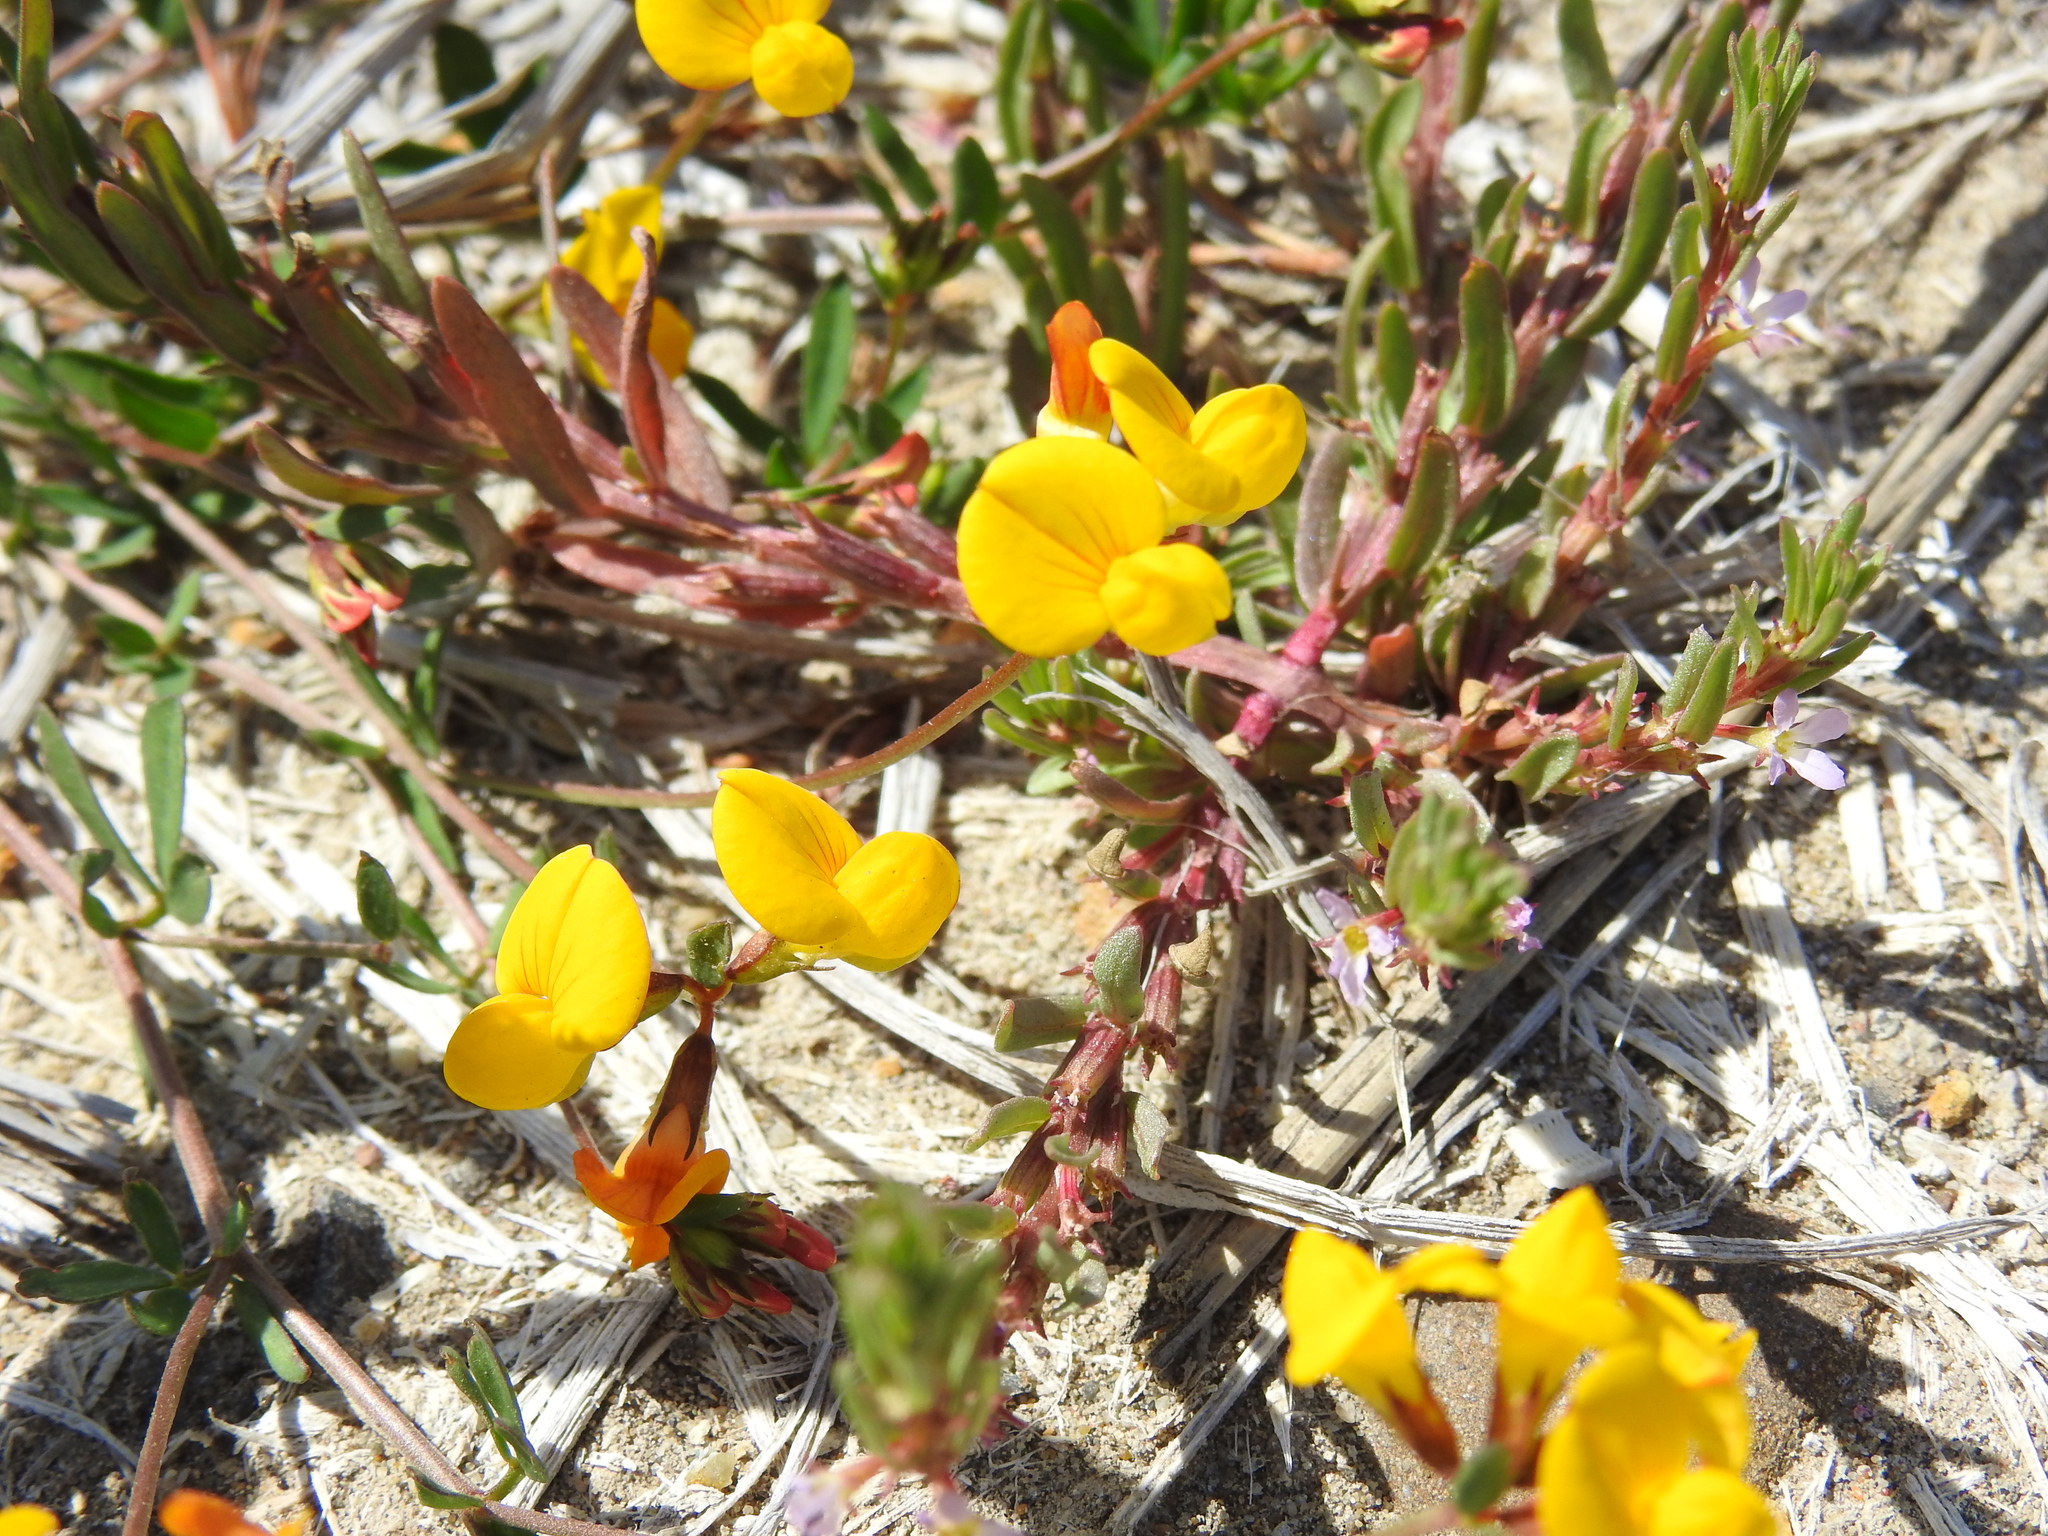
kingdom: Plantae
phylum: Tracheophyta
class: Magnoliopsida
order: Fabales
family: Fabaceae
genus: Lotus
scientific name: Lotus tenuis
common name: Narrow-leaved bird's-foot-trefoil
